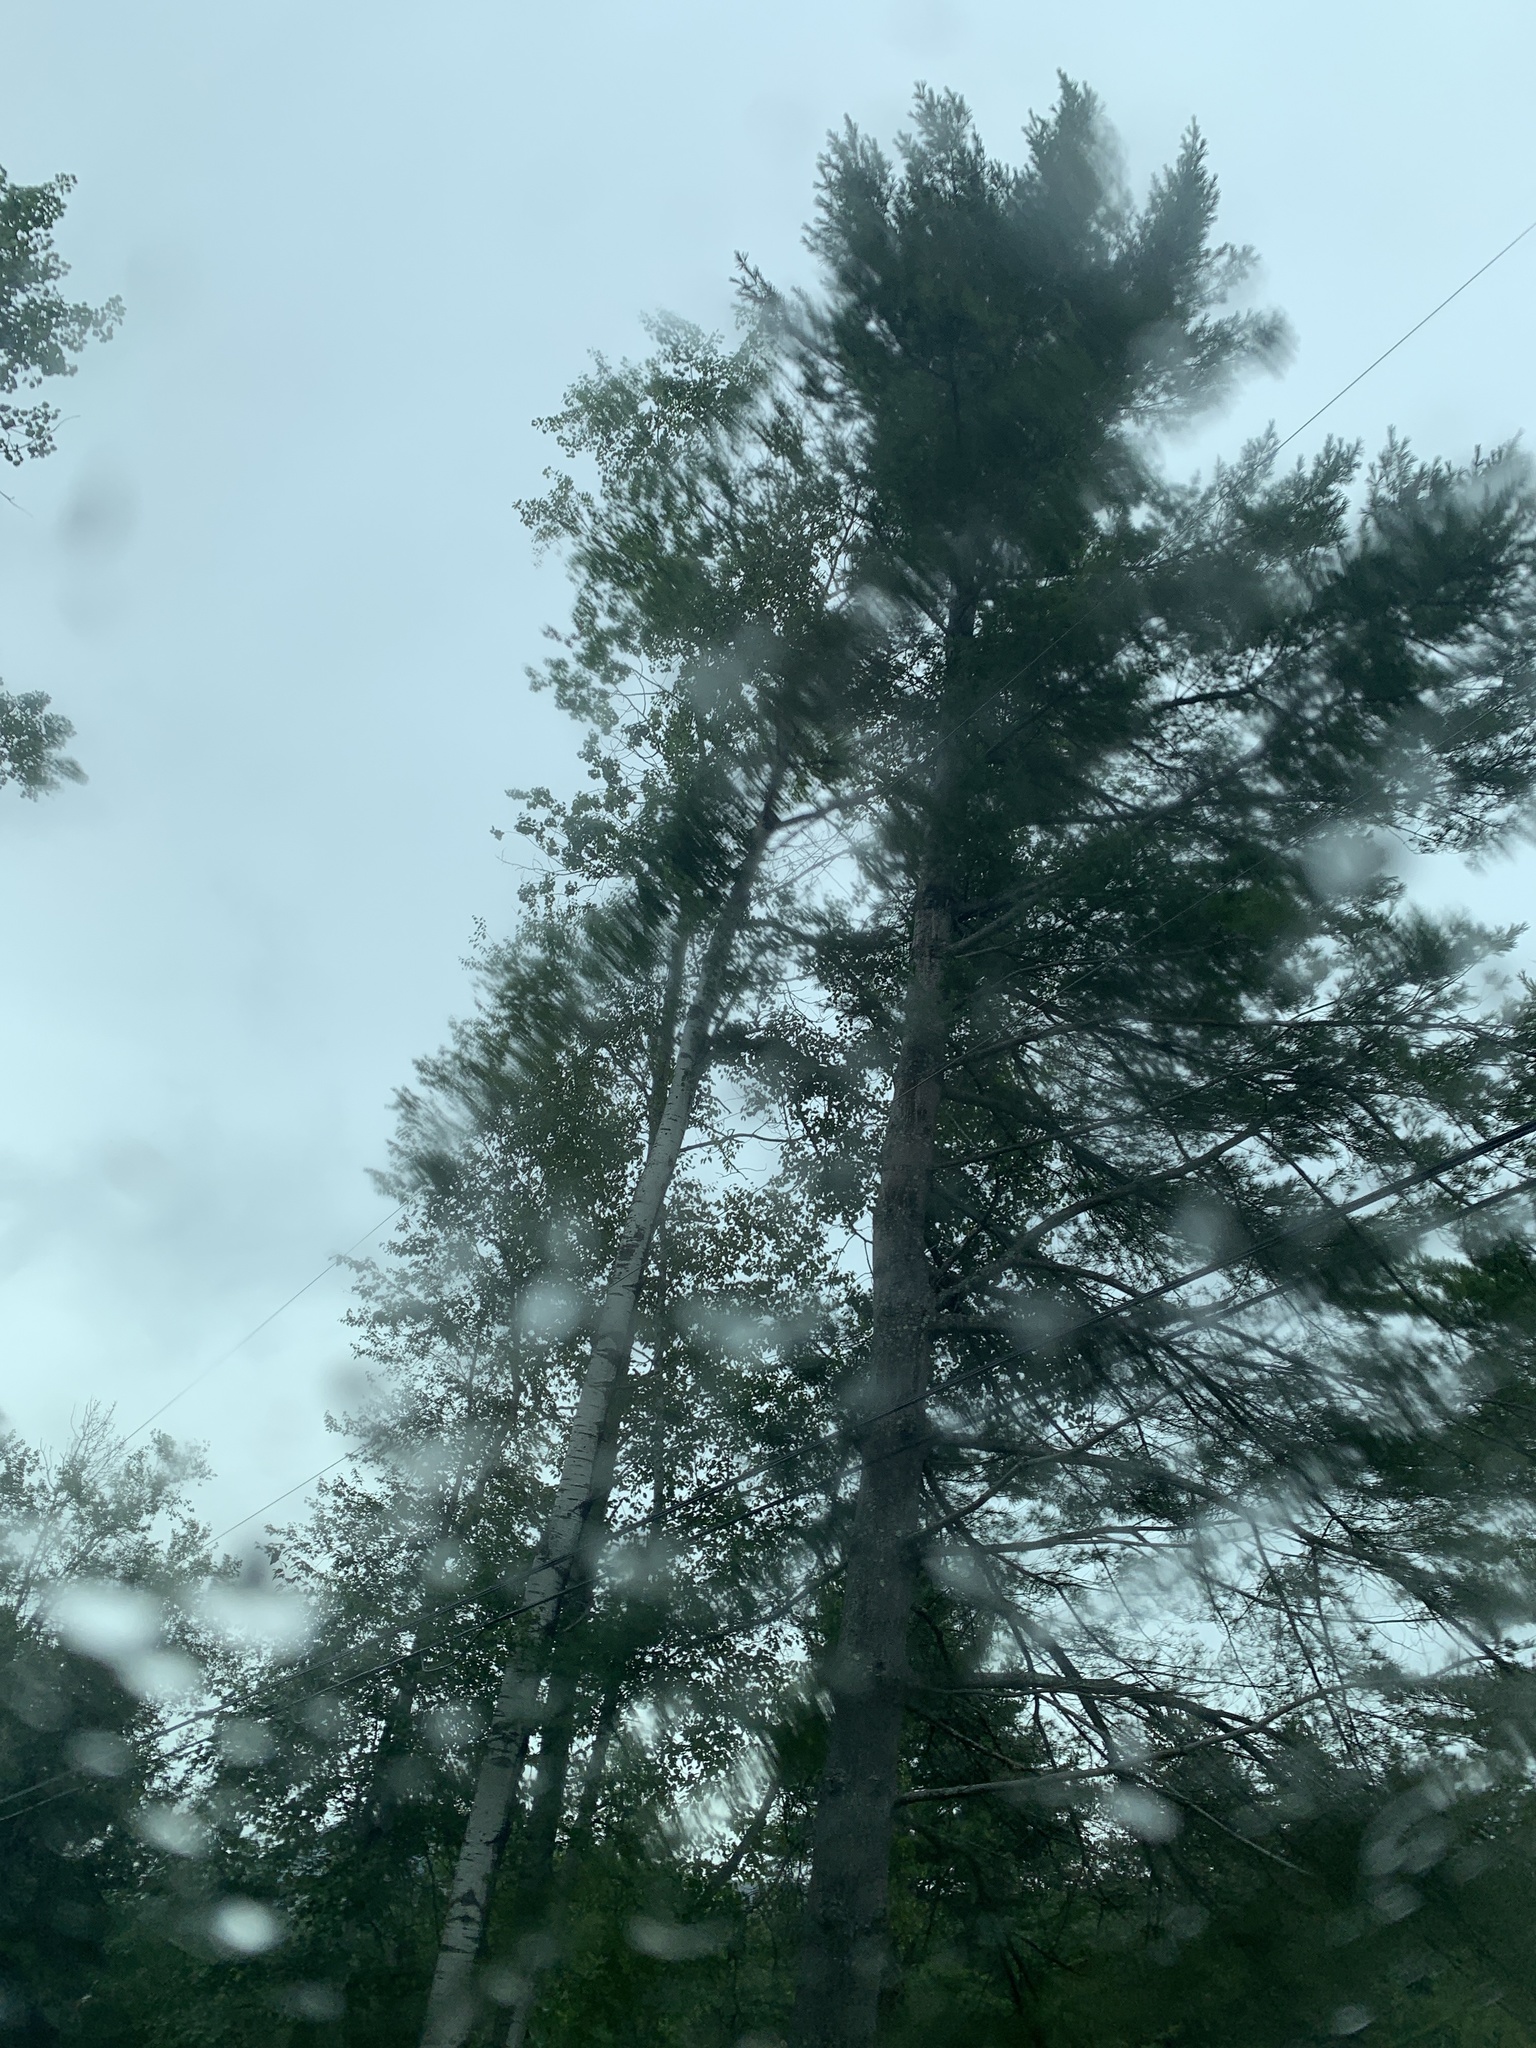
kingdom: Plantae
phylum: Tracheophyta
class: Pinopsida
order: Pinales
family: Pinaceae
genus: Pinus
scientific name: Pinus strobus
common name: Weymouth pine
